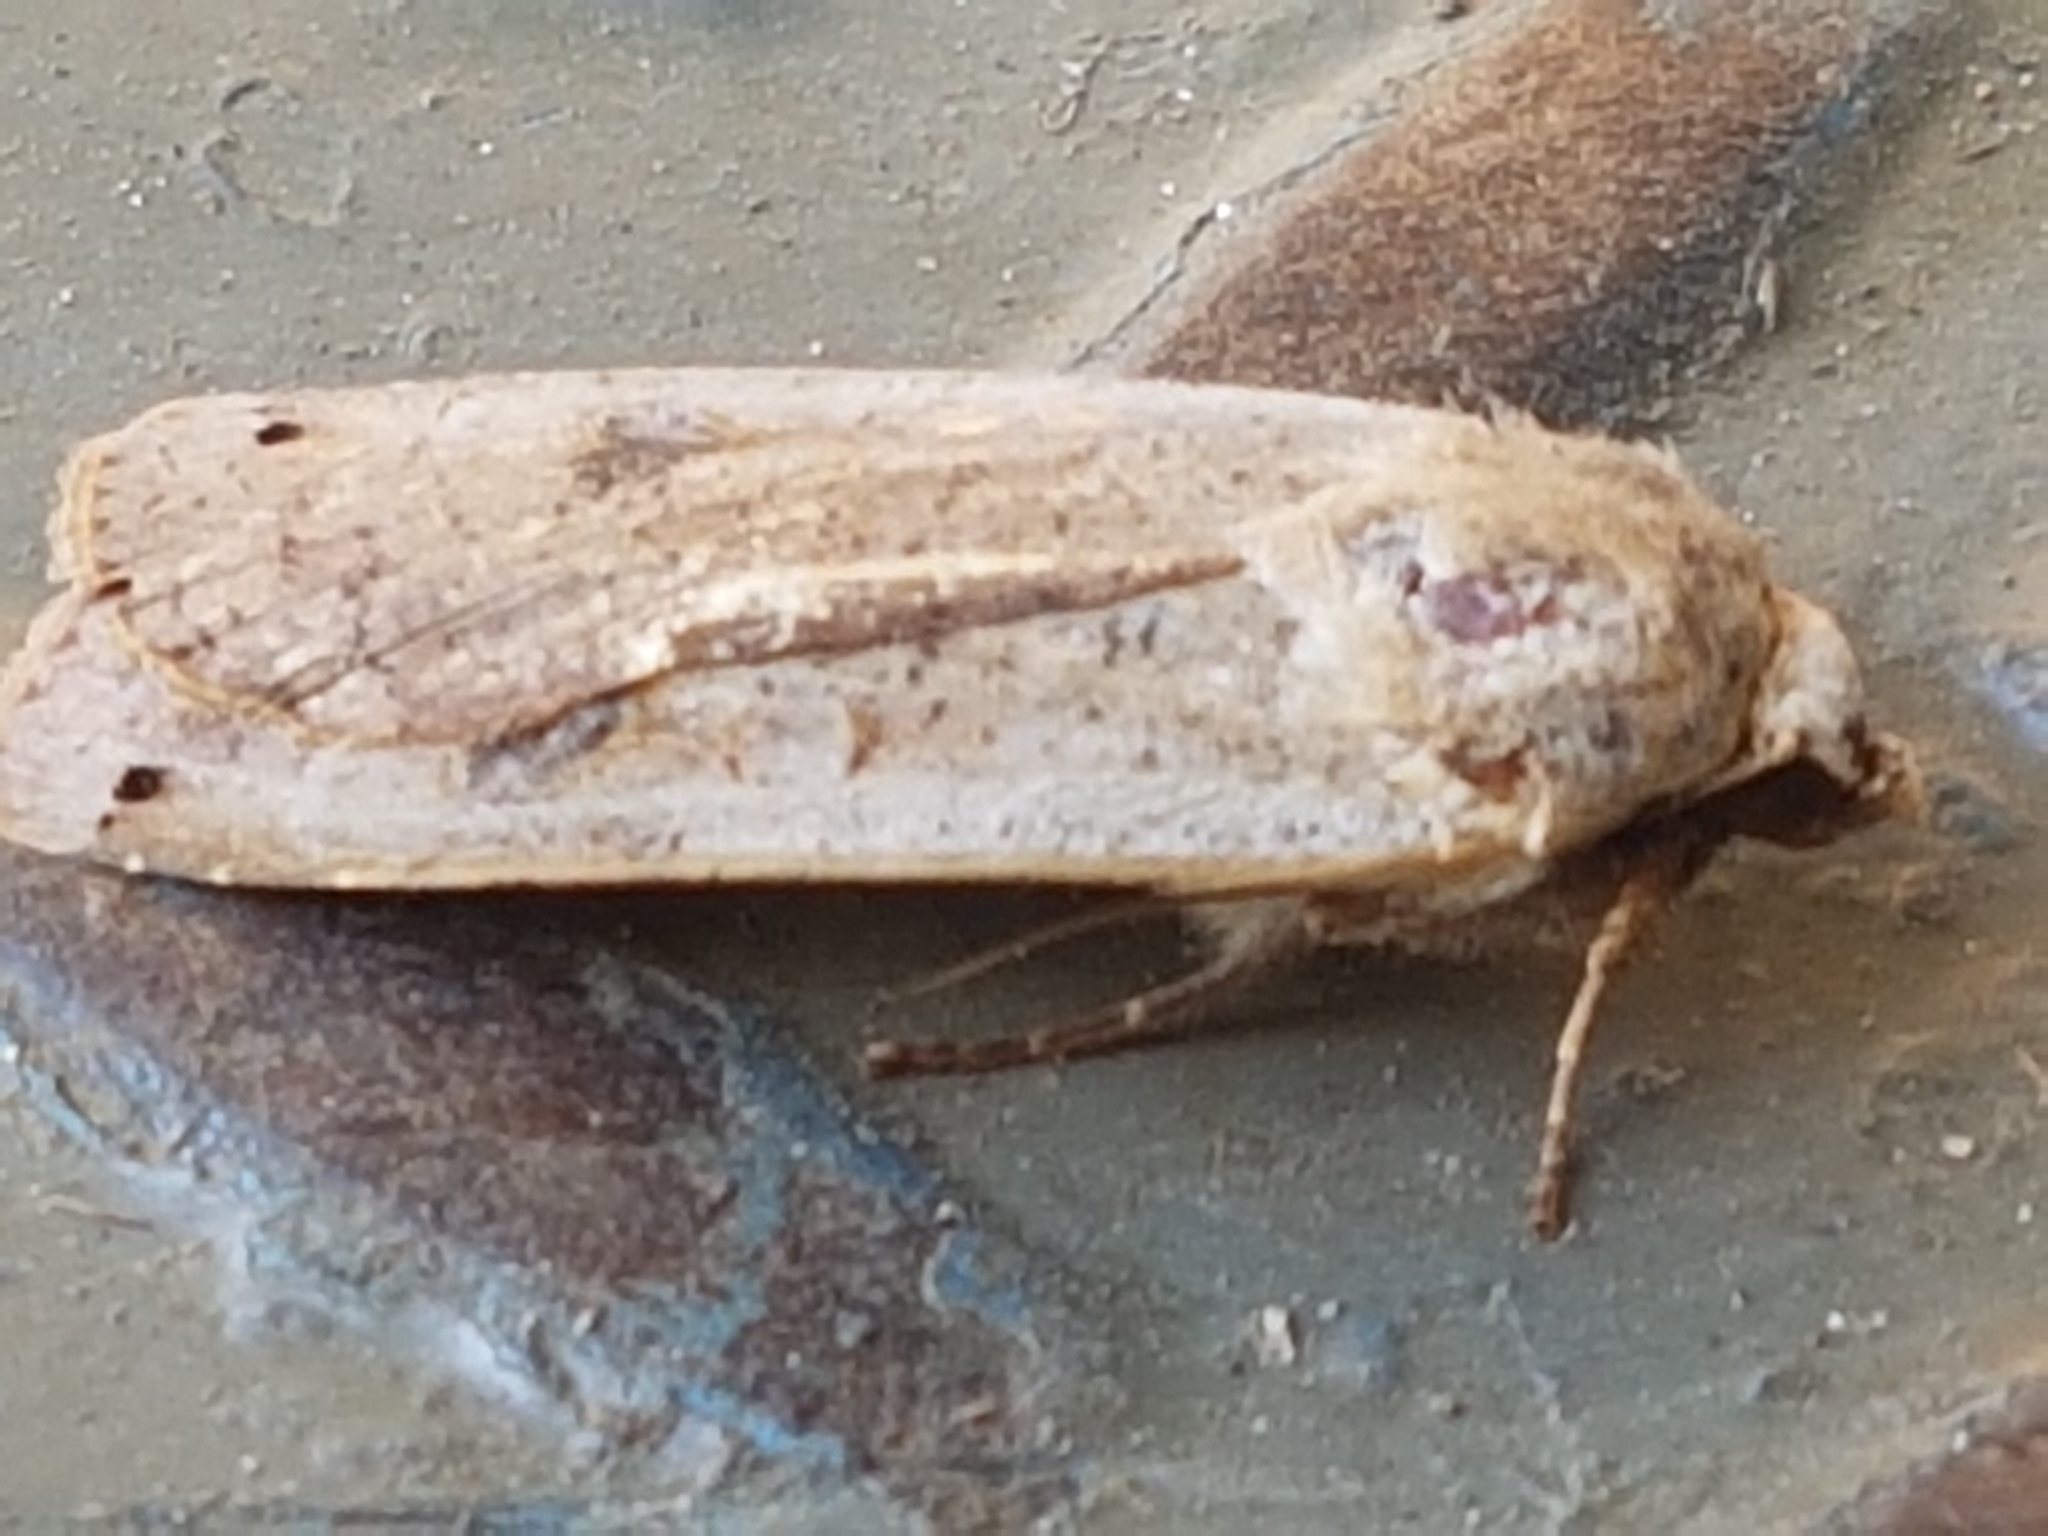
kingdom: Animalia
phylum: Arthropoda
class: Insecta
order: Lepidoptera
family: Noctuidae
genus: Noctua
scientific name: Noctua pronuba
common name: Large yellow underwing
